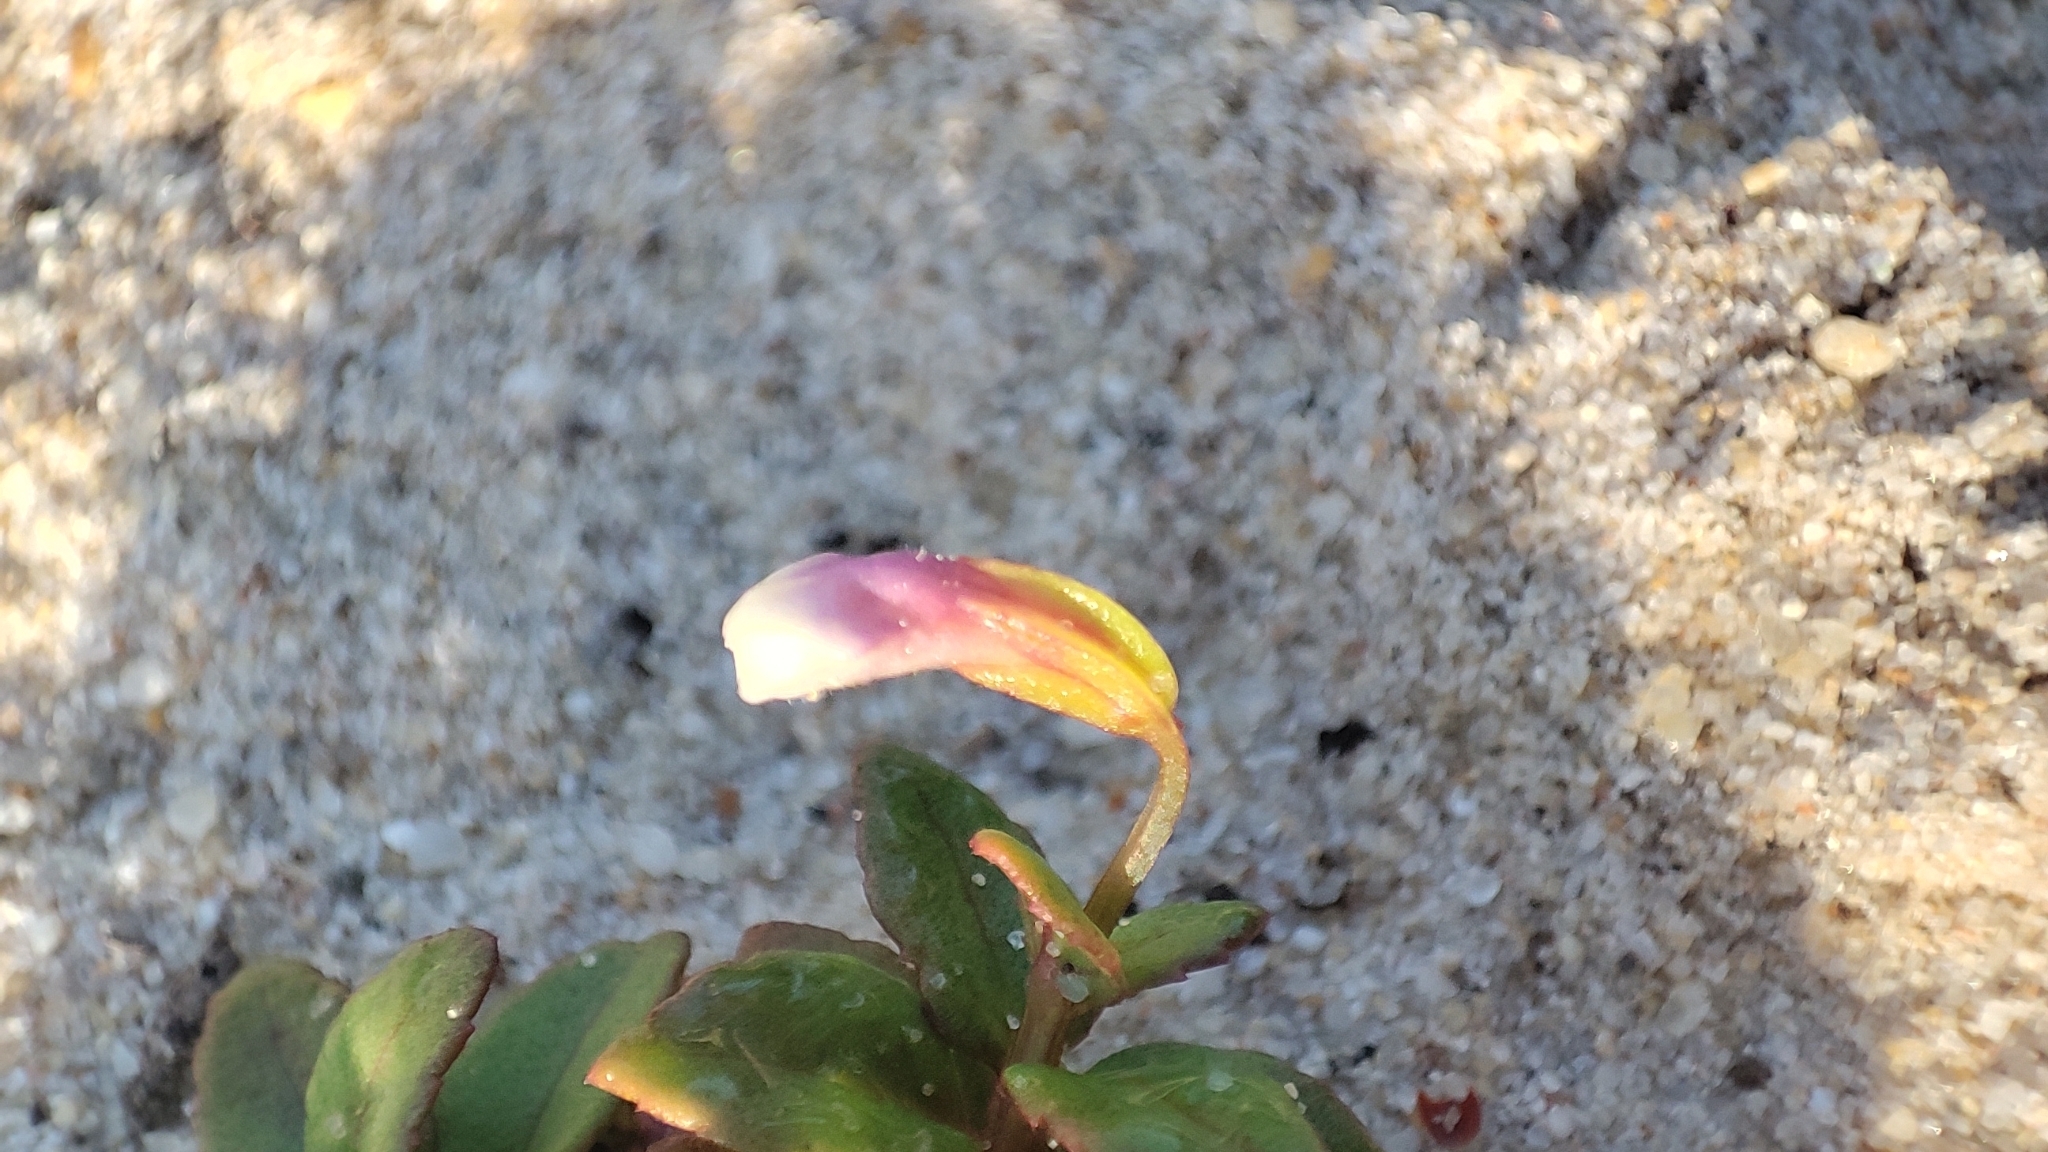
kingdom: Plantae
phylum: Tracheophyta
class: Magnoliopsida
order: Lamiales
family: Linderniaceae
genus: Torenia
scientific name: Torenia crustacea
